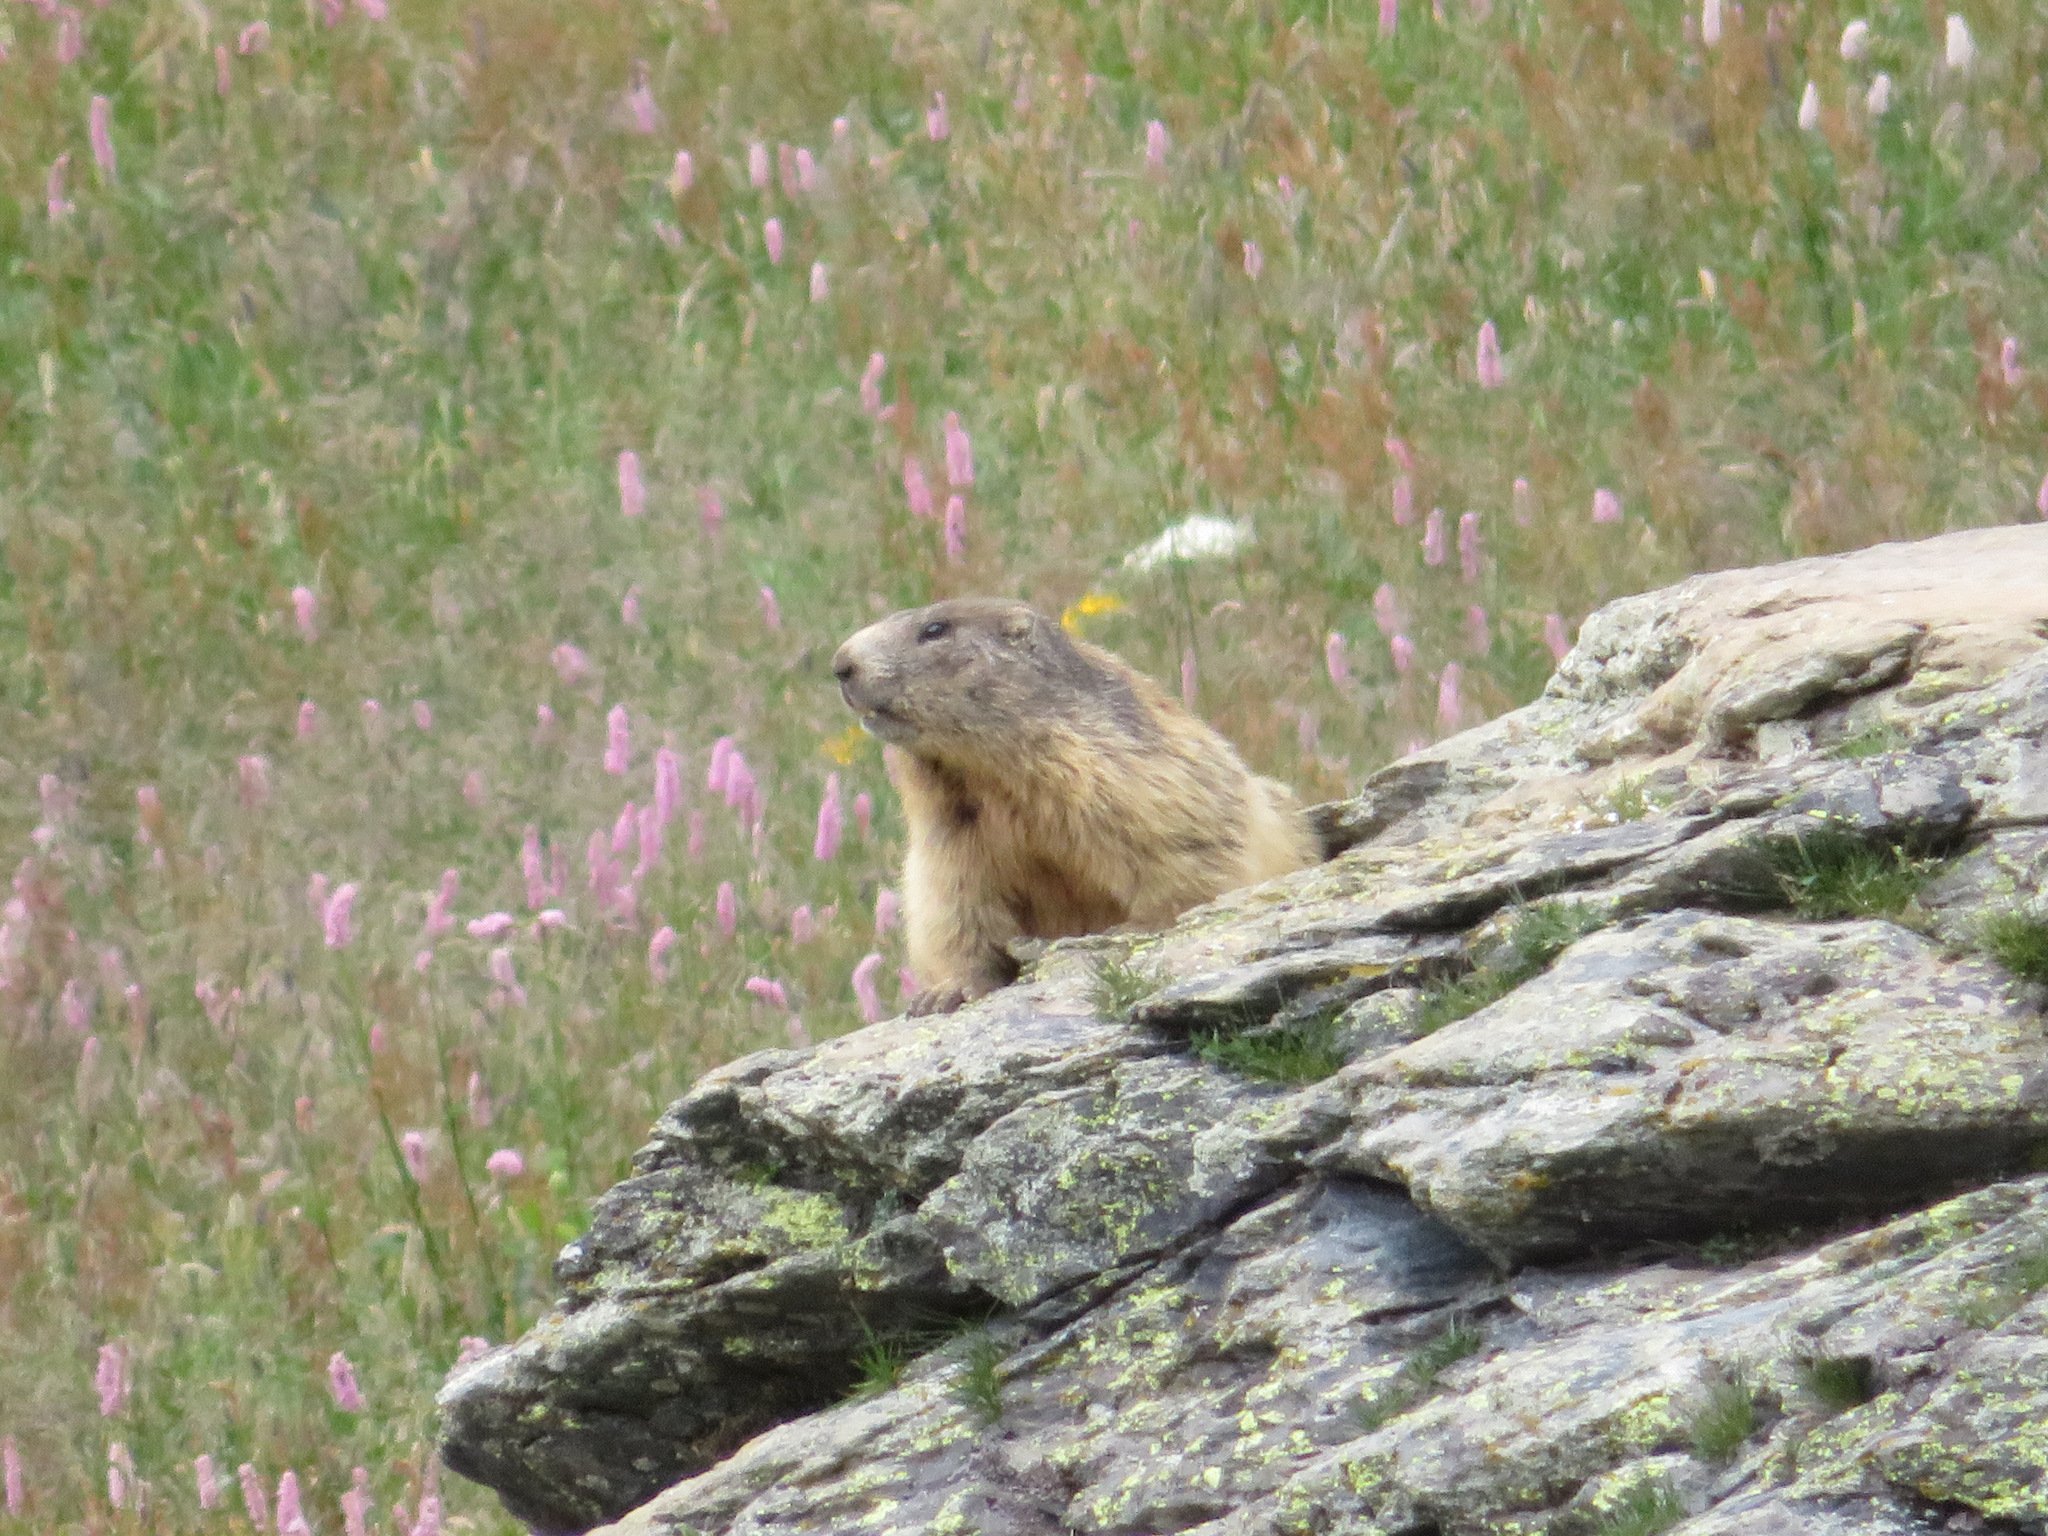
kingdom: Animalia
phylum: Chordata
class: Mammalia
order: Rodentia
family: Sciuridae
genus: Marmota
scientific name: Marmota marmota
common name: Alpine marmot
